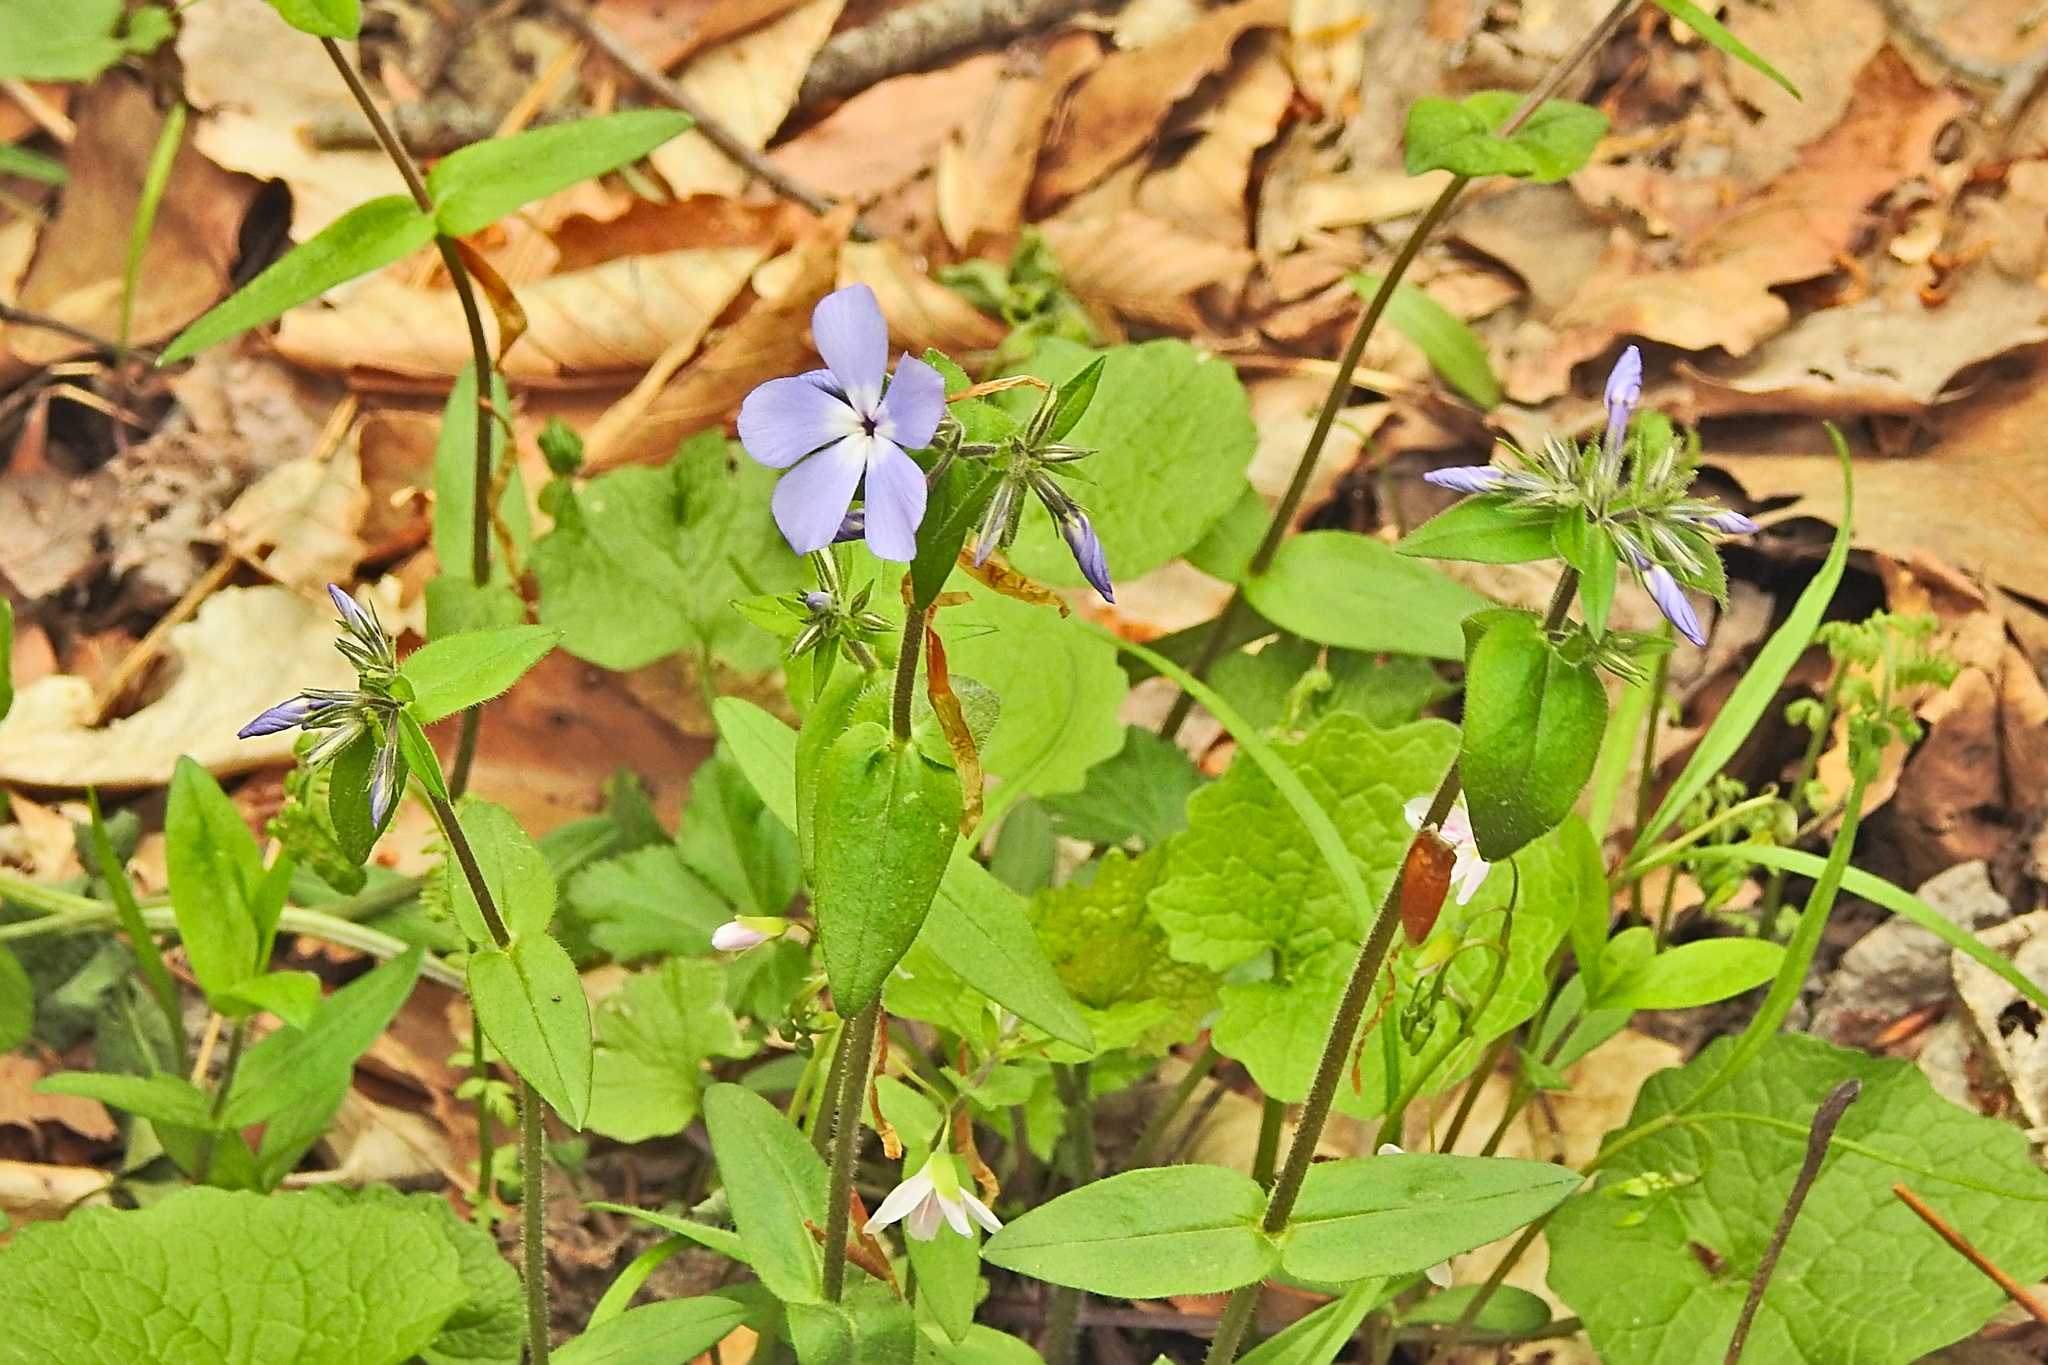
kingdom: Plantae
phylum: Tracheophyta
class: Magnoliopsida
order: Ericales
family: Polemoniaceae
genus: Phlox
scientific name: Phlox divaricata
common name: Blue phlox
